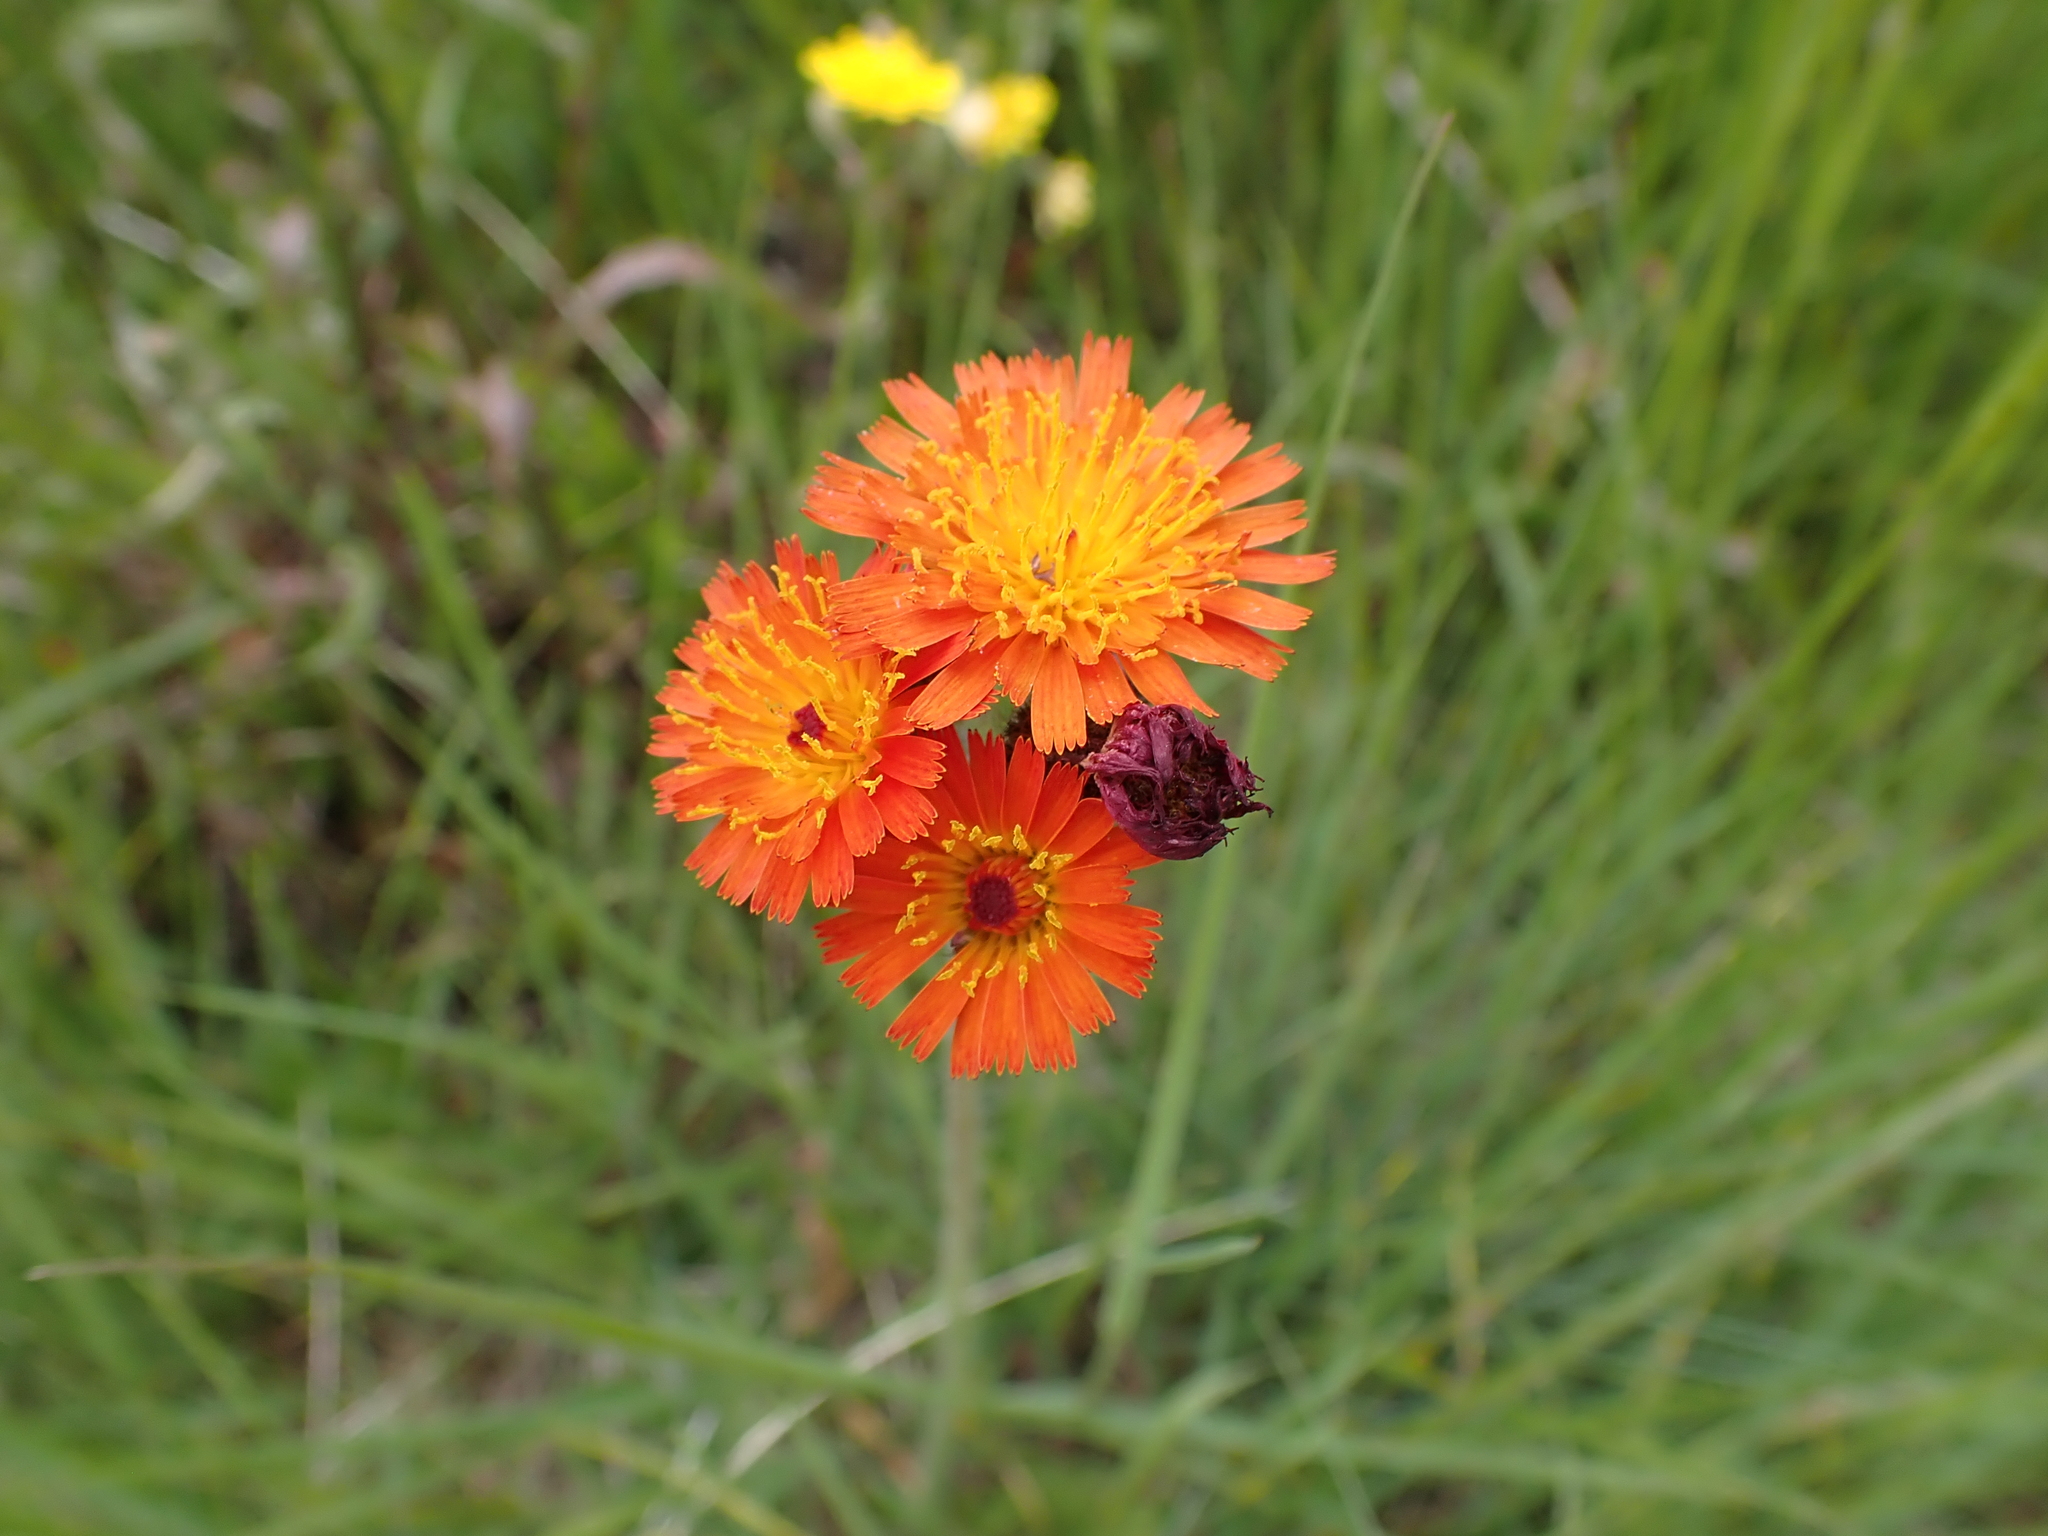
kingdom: Plantae
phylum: Tracheophyta
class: Magnoliopsida
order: Asterales
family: Asteraceae
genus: Pilosella
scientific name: Pilosella aurantiaca
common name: Fox-and-cubs
